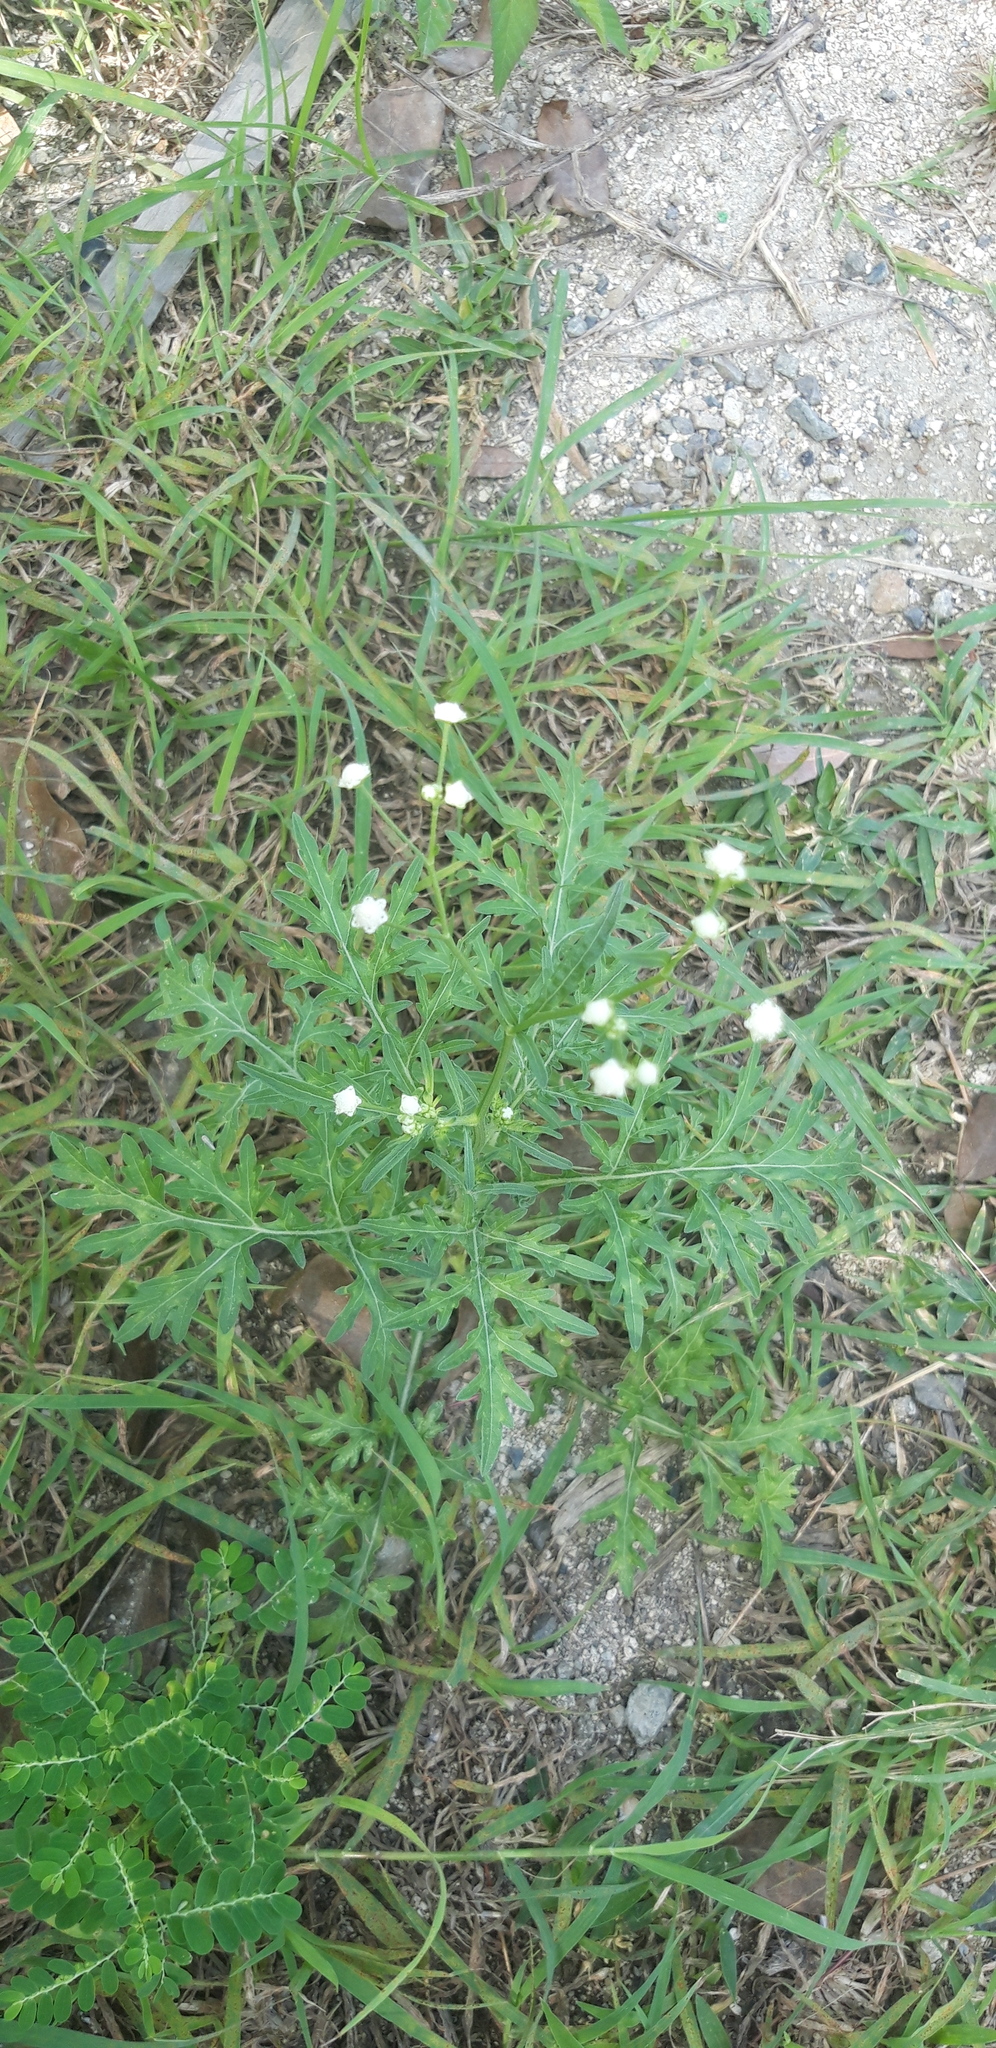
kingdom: Plantae
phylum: Tracheophyta
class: Magnoliopsida
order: Asterales
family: Asteraceae
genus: Parthenium
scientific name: Parthenium hysterophorus
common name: Santa maria feverfew
